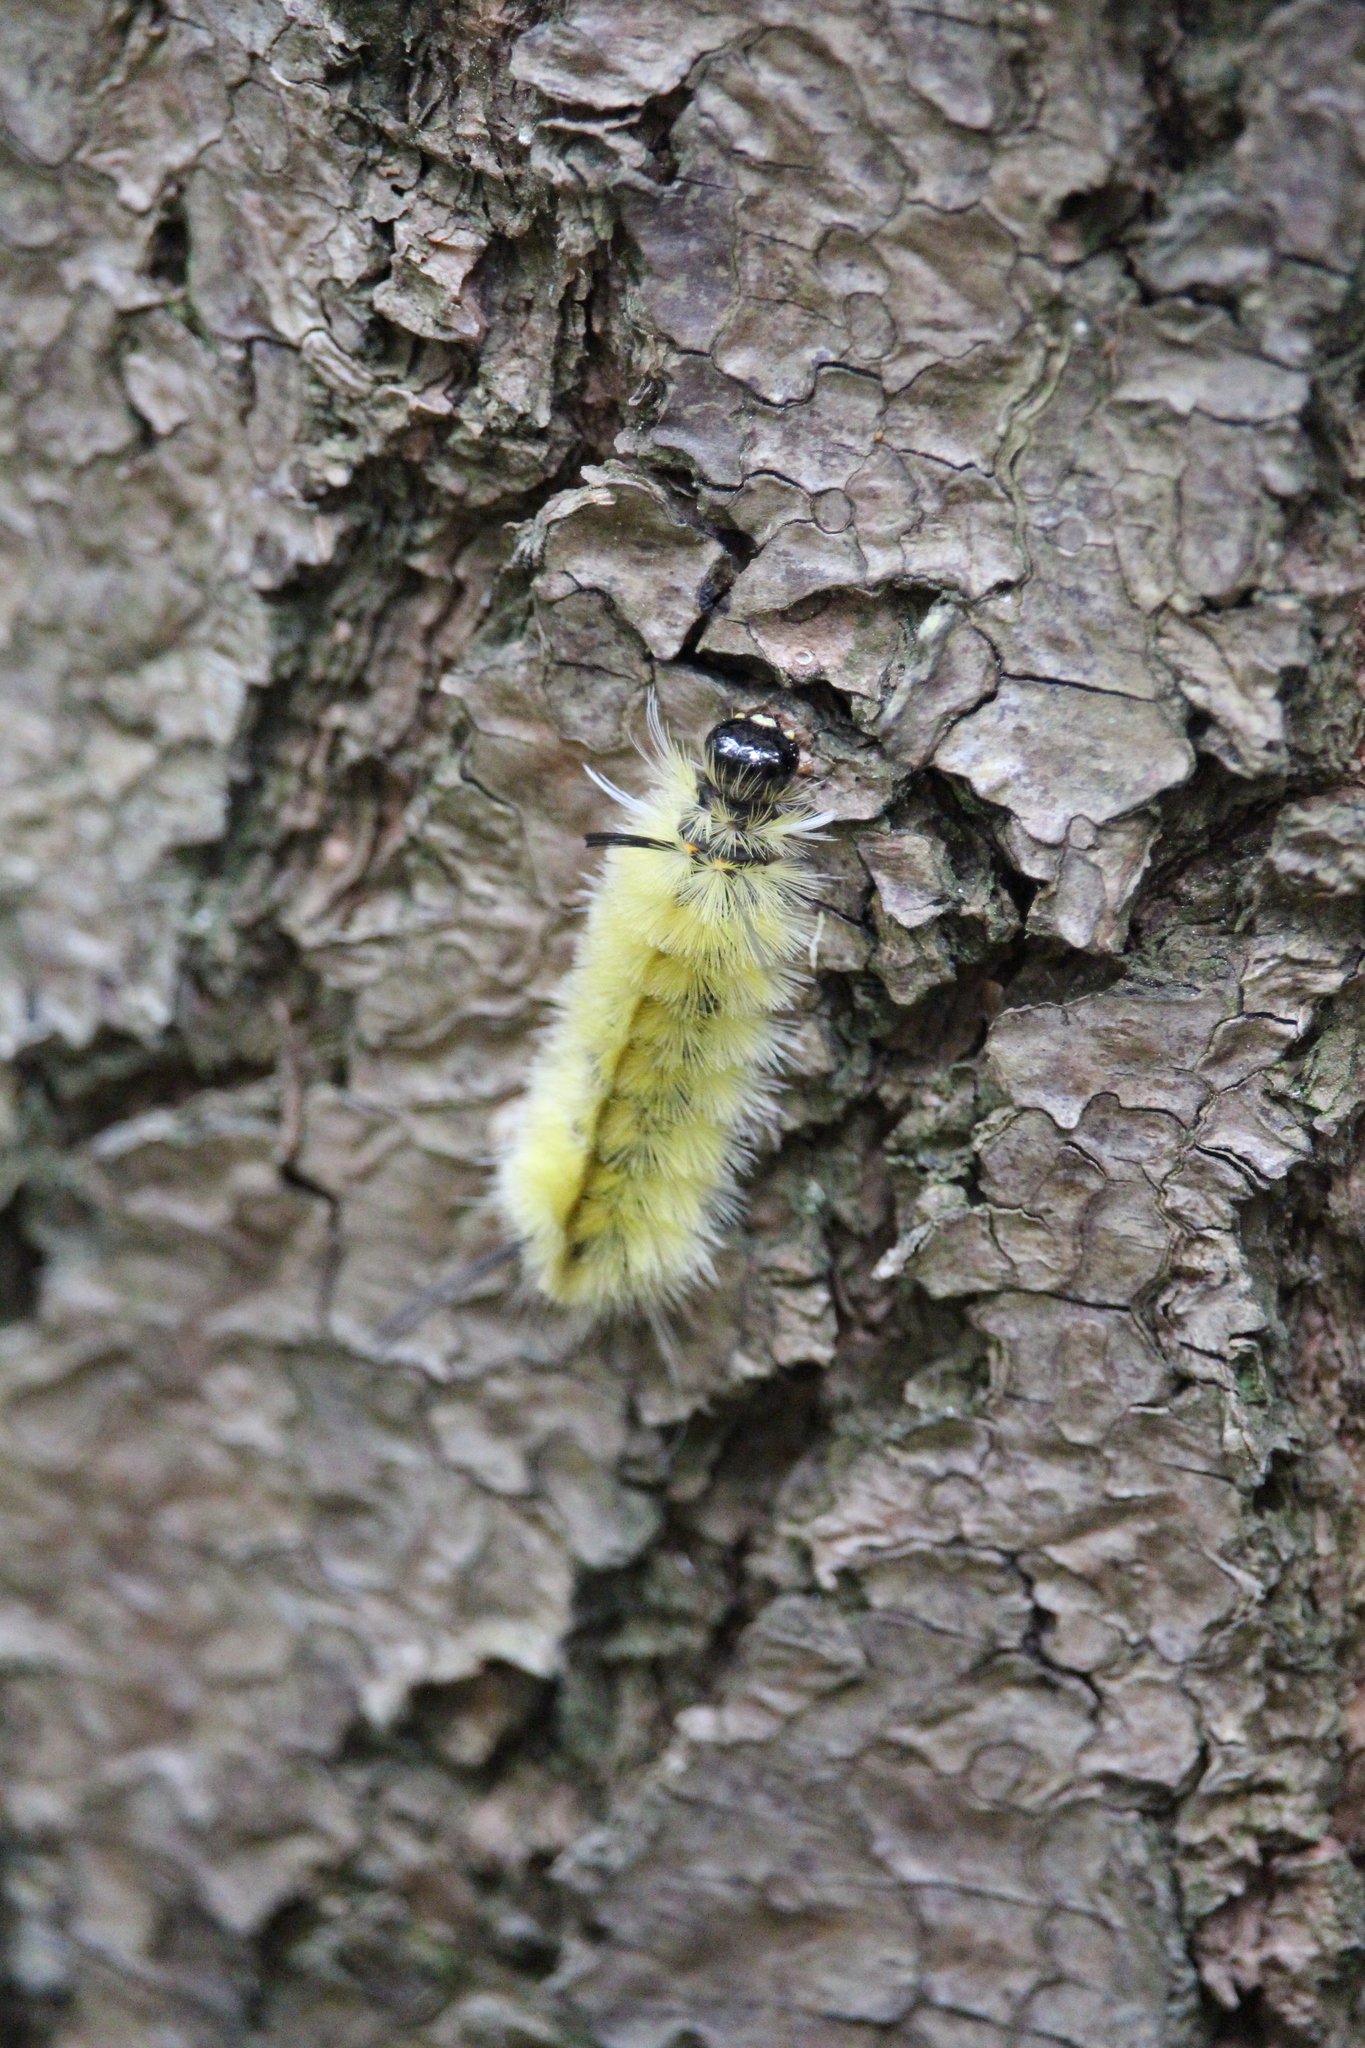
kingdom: Animalia
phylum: Arthropoda
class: Insecta
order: Lepidoptera
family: Erebidae
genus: Halysidota
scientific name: Halysidota tessellaris
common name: Banded tussock moth
